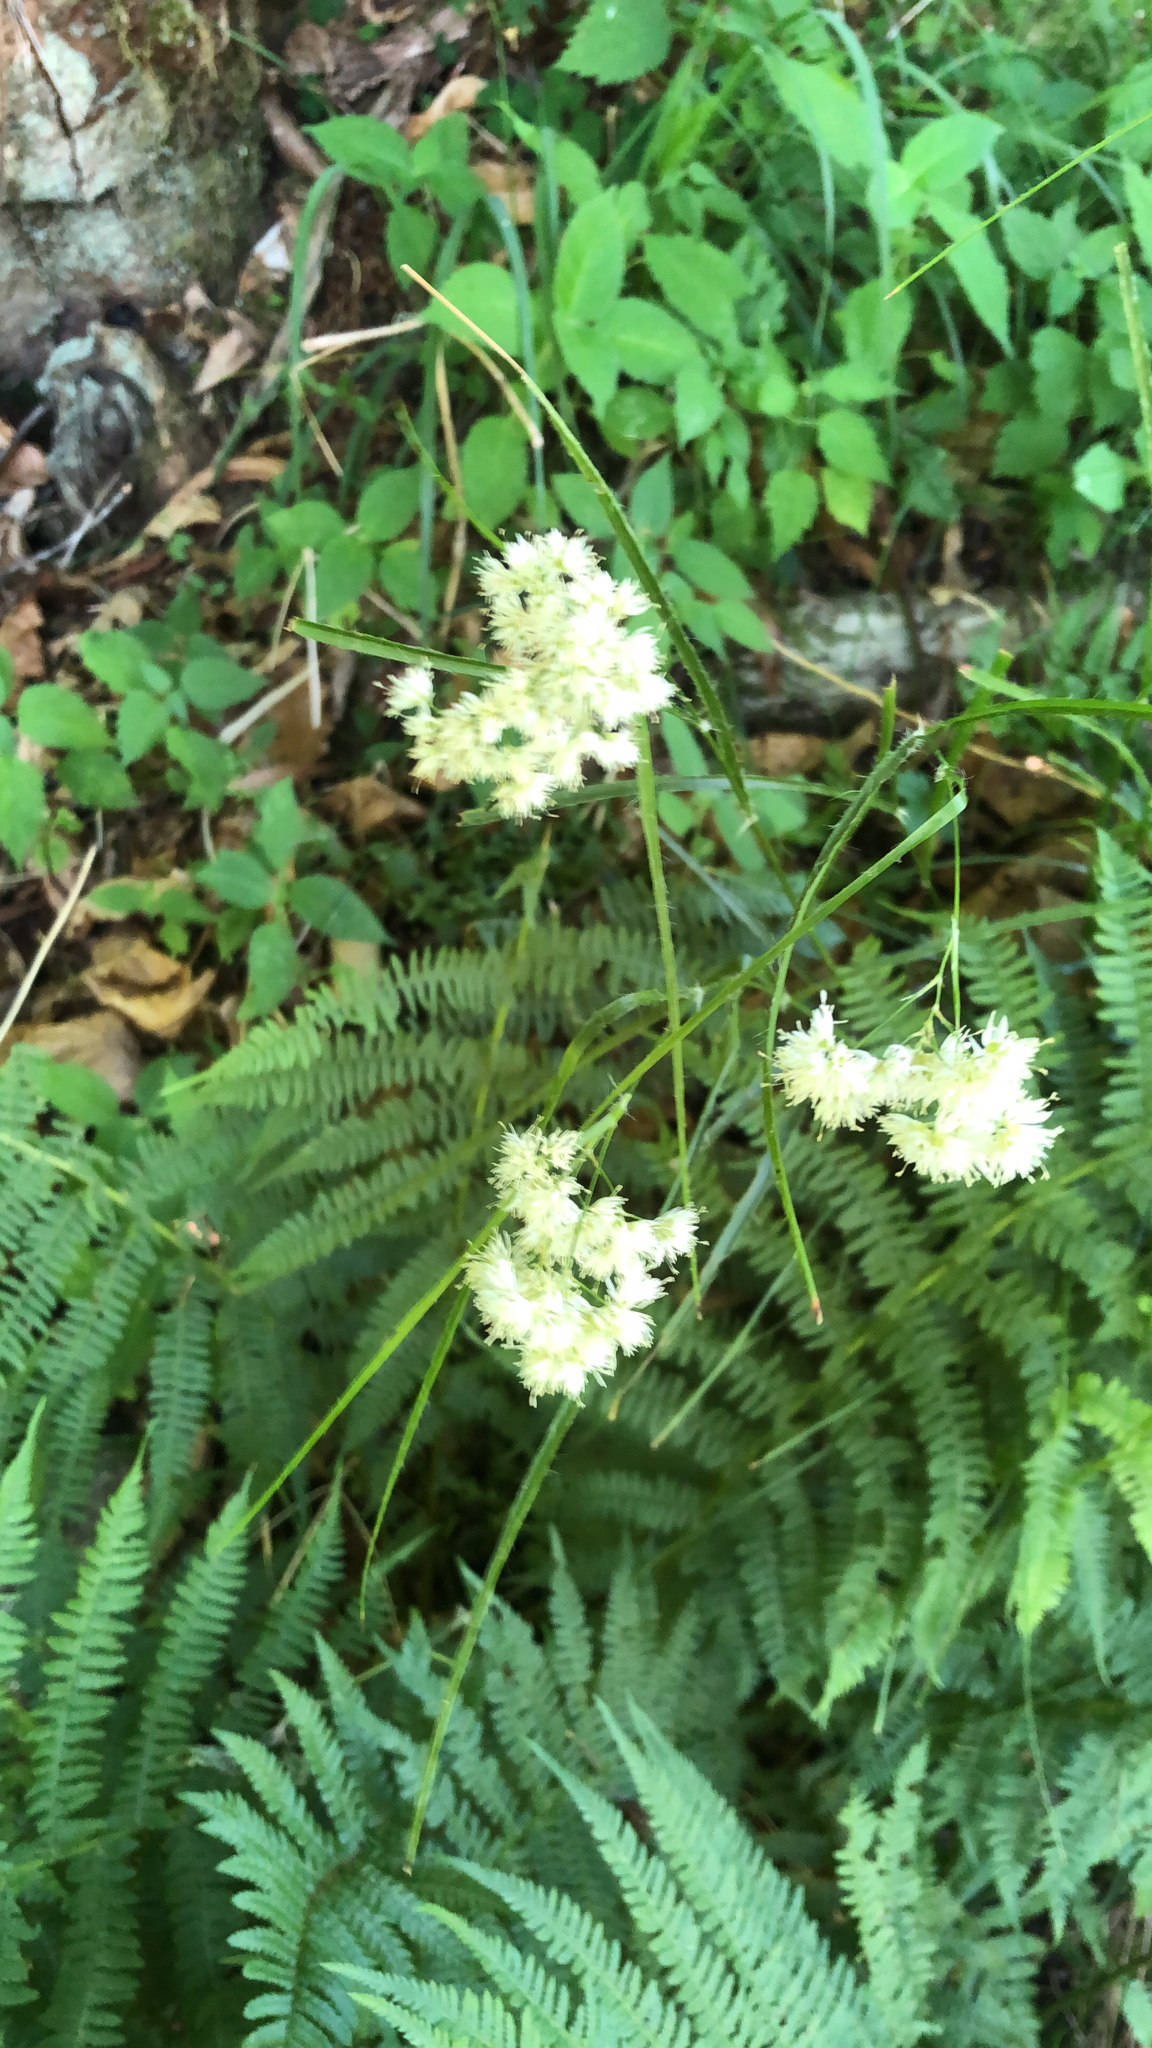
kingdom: Plantae
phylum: Tracheophyta
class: Liliopsida
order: Poales
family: Juncaceae
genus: Luzula
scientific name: Luzula nivea
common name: Snow-white wood-rush
